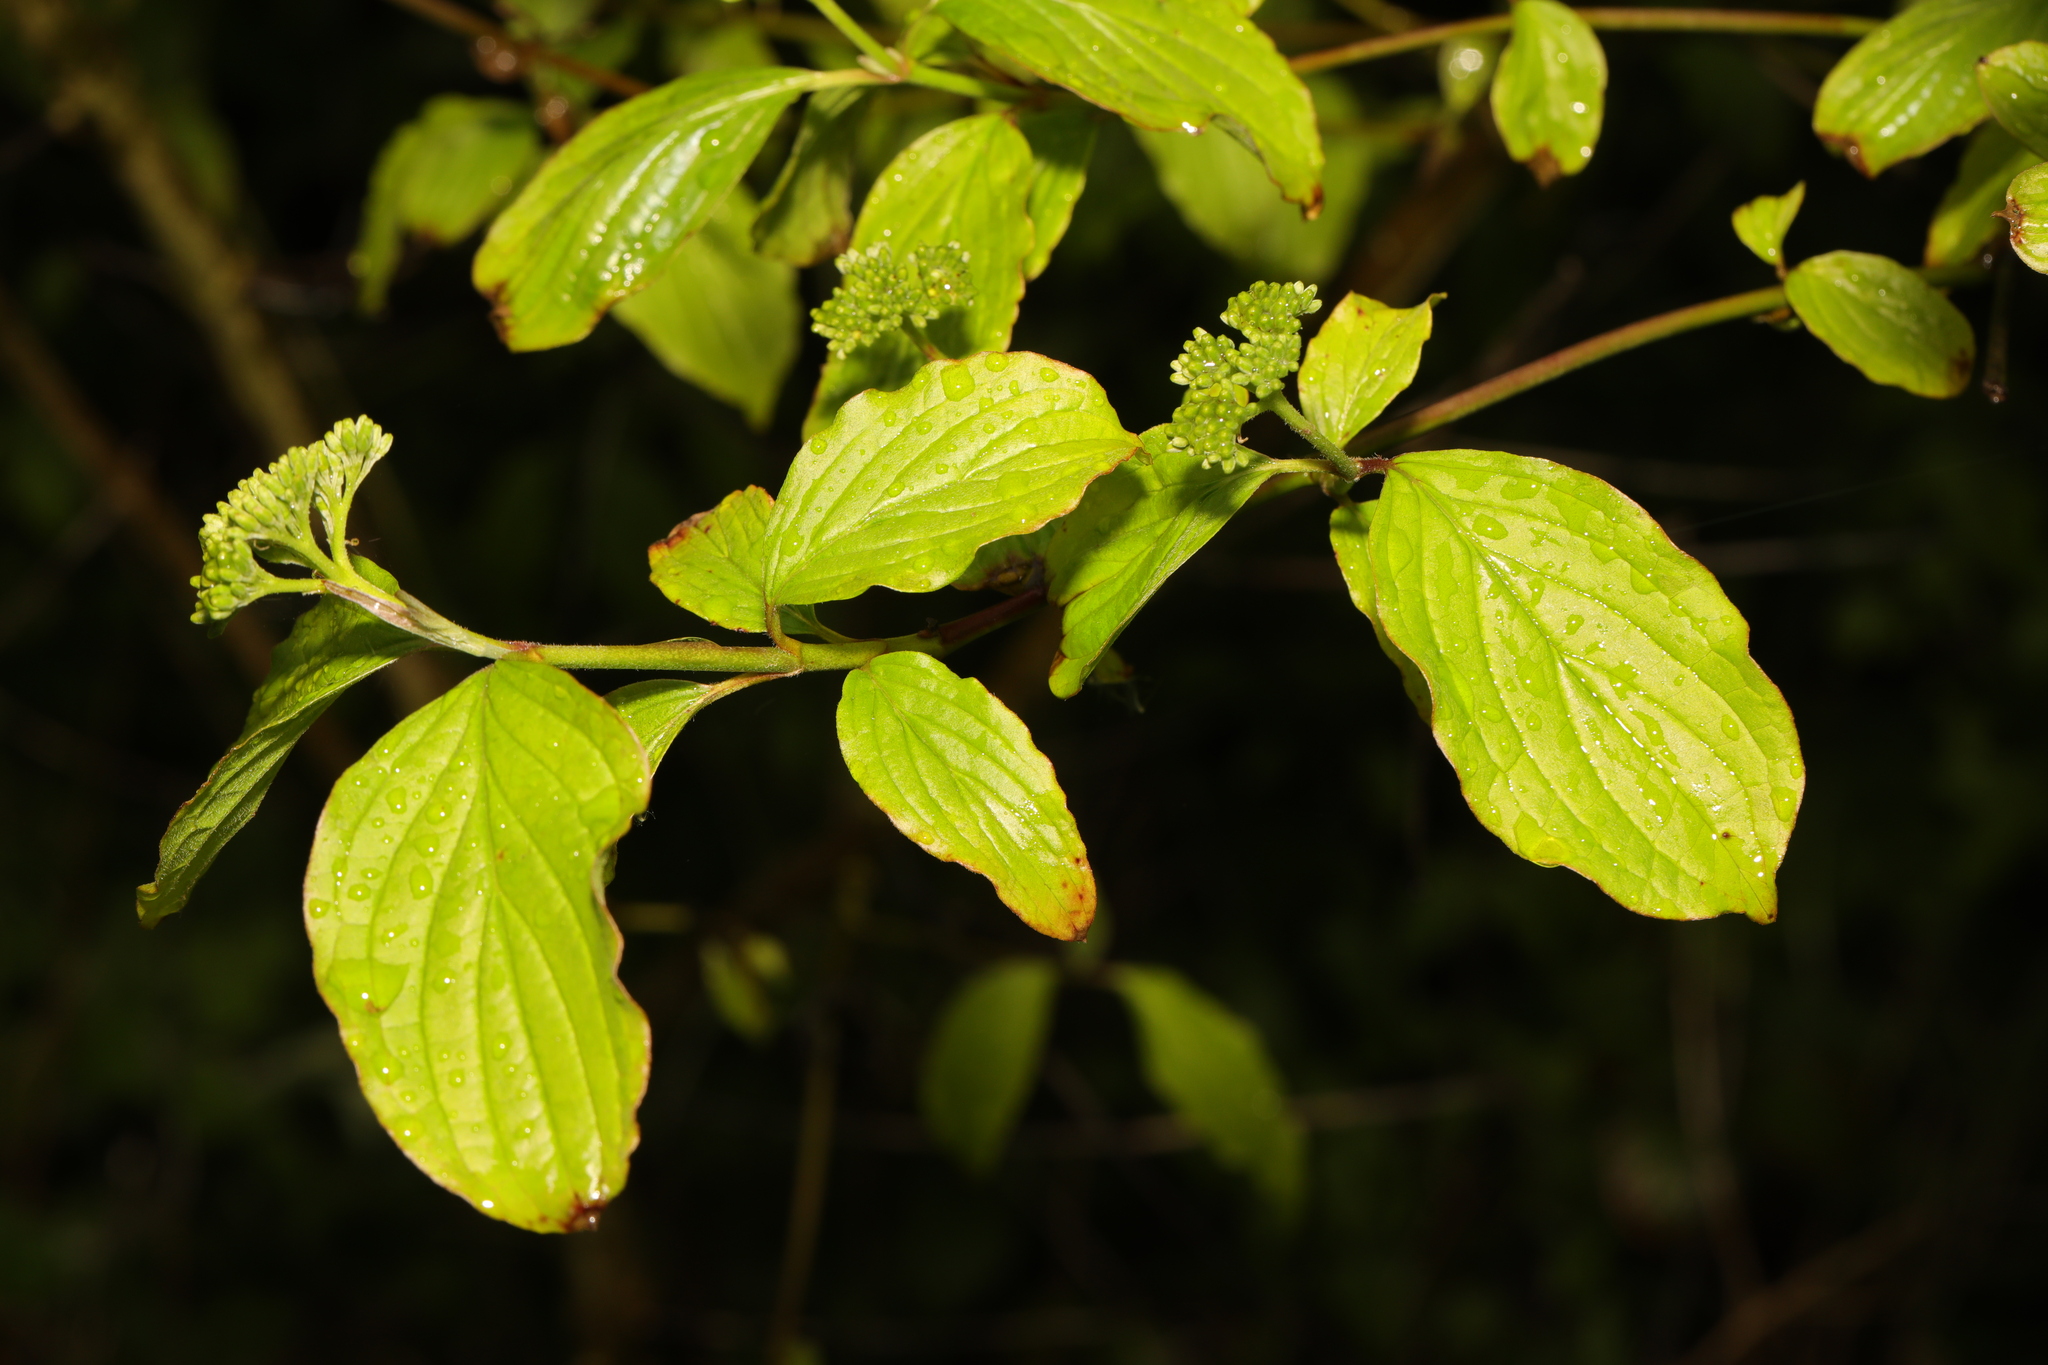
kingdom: Plantae
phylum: Tracheophyta
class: Magnoliopsida
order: Cornales
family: Cornaceae
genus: Cornus
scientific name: Cornus sanguinea
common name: Dogwood
